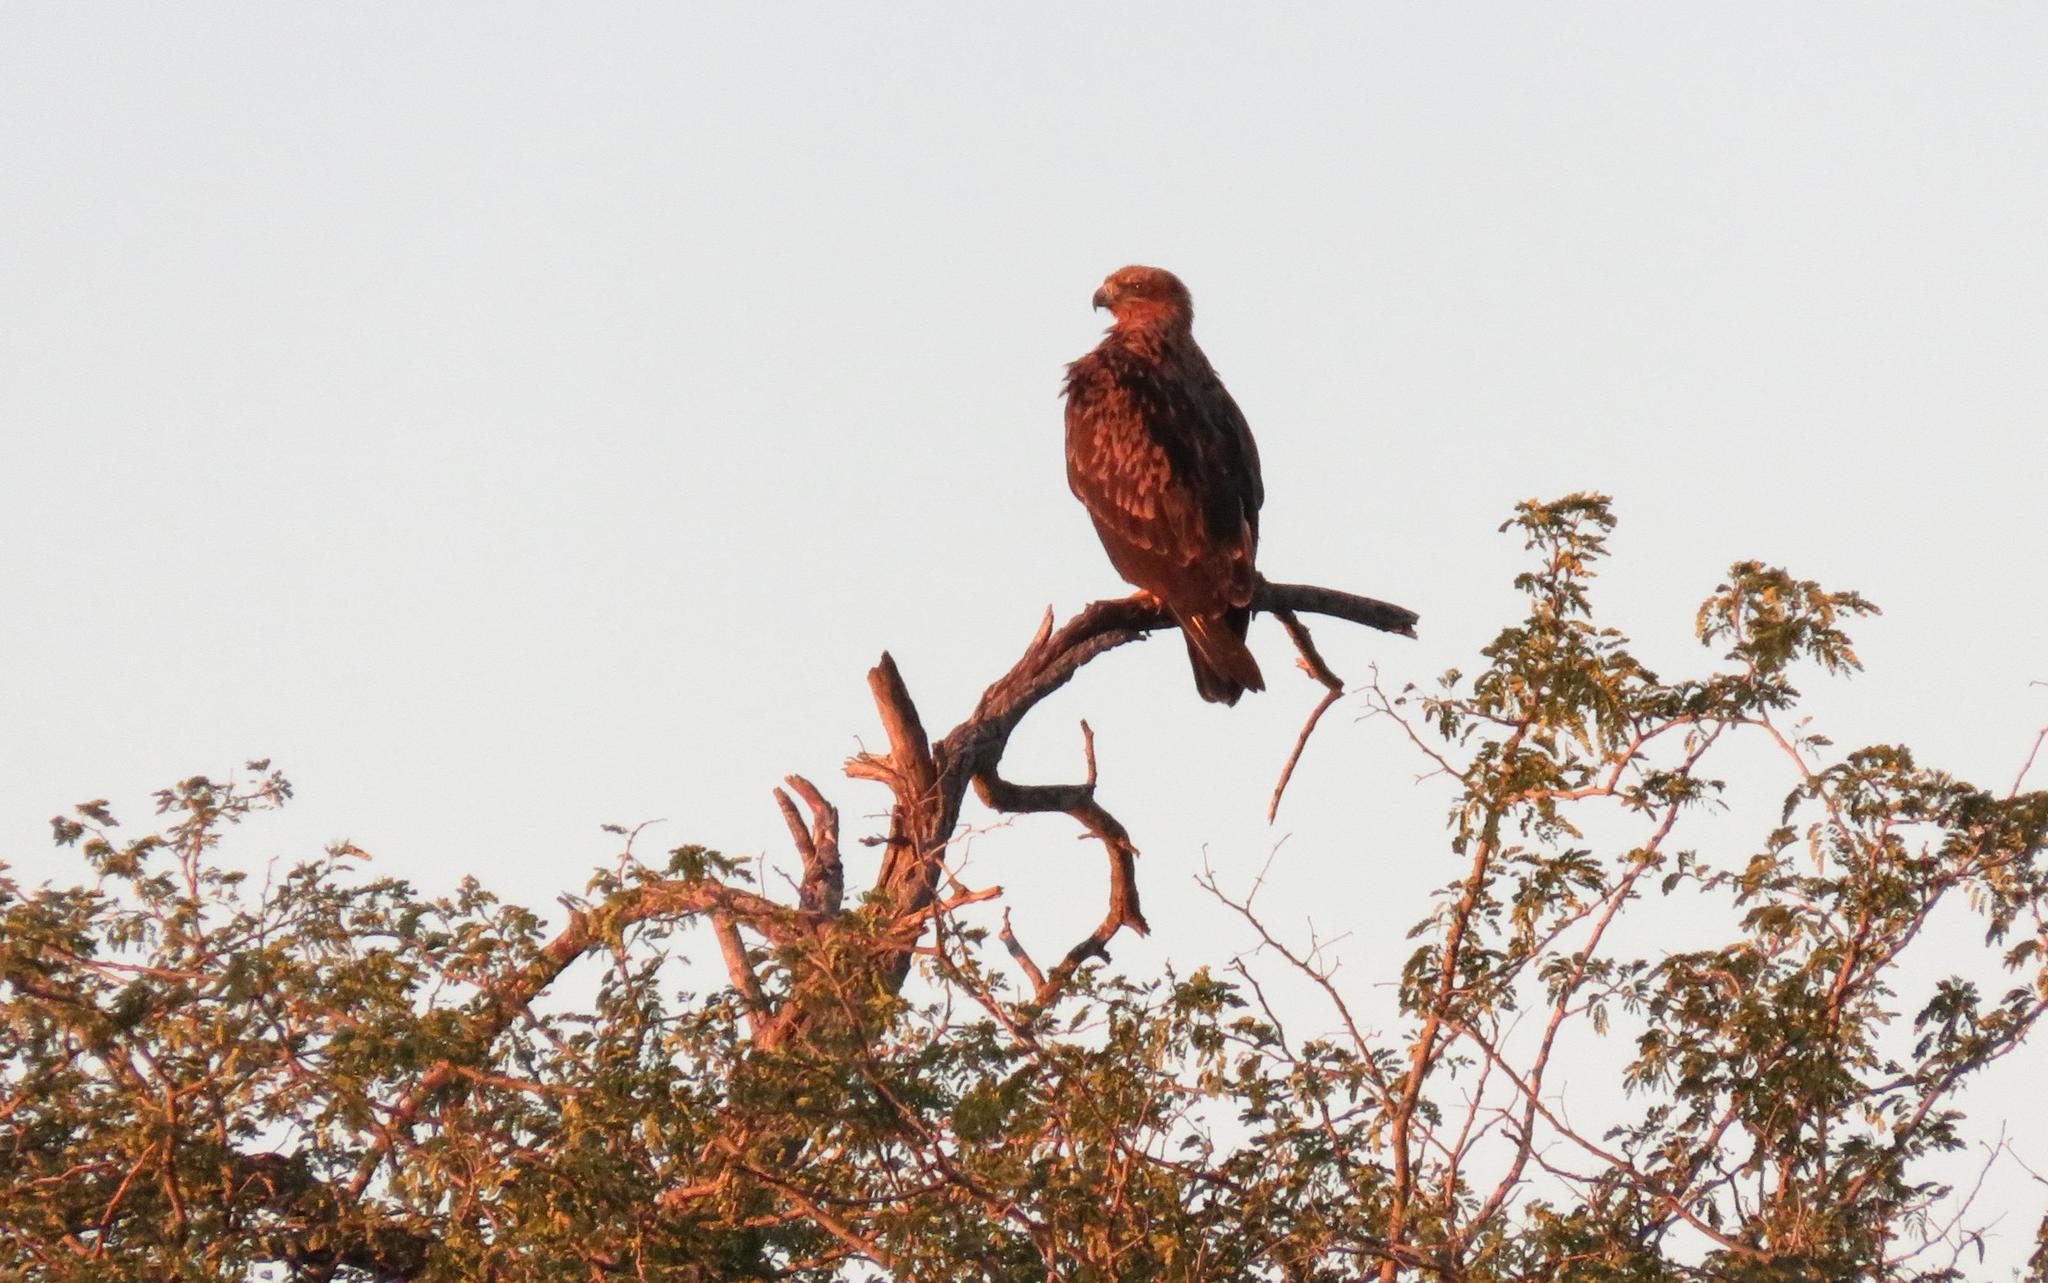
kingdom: Animalia
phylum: Chordata
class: Aves
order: Accipitriformes
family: Accipitridae
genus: Aquila
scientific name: Aquila rapax
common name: Tawny eagle
